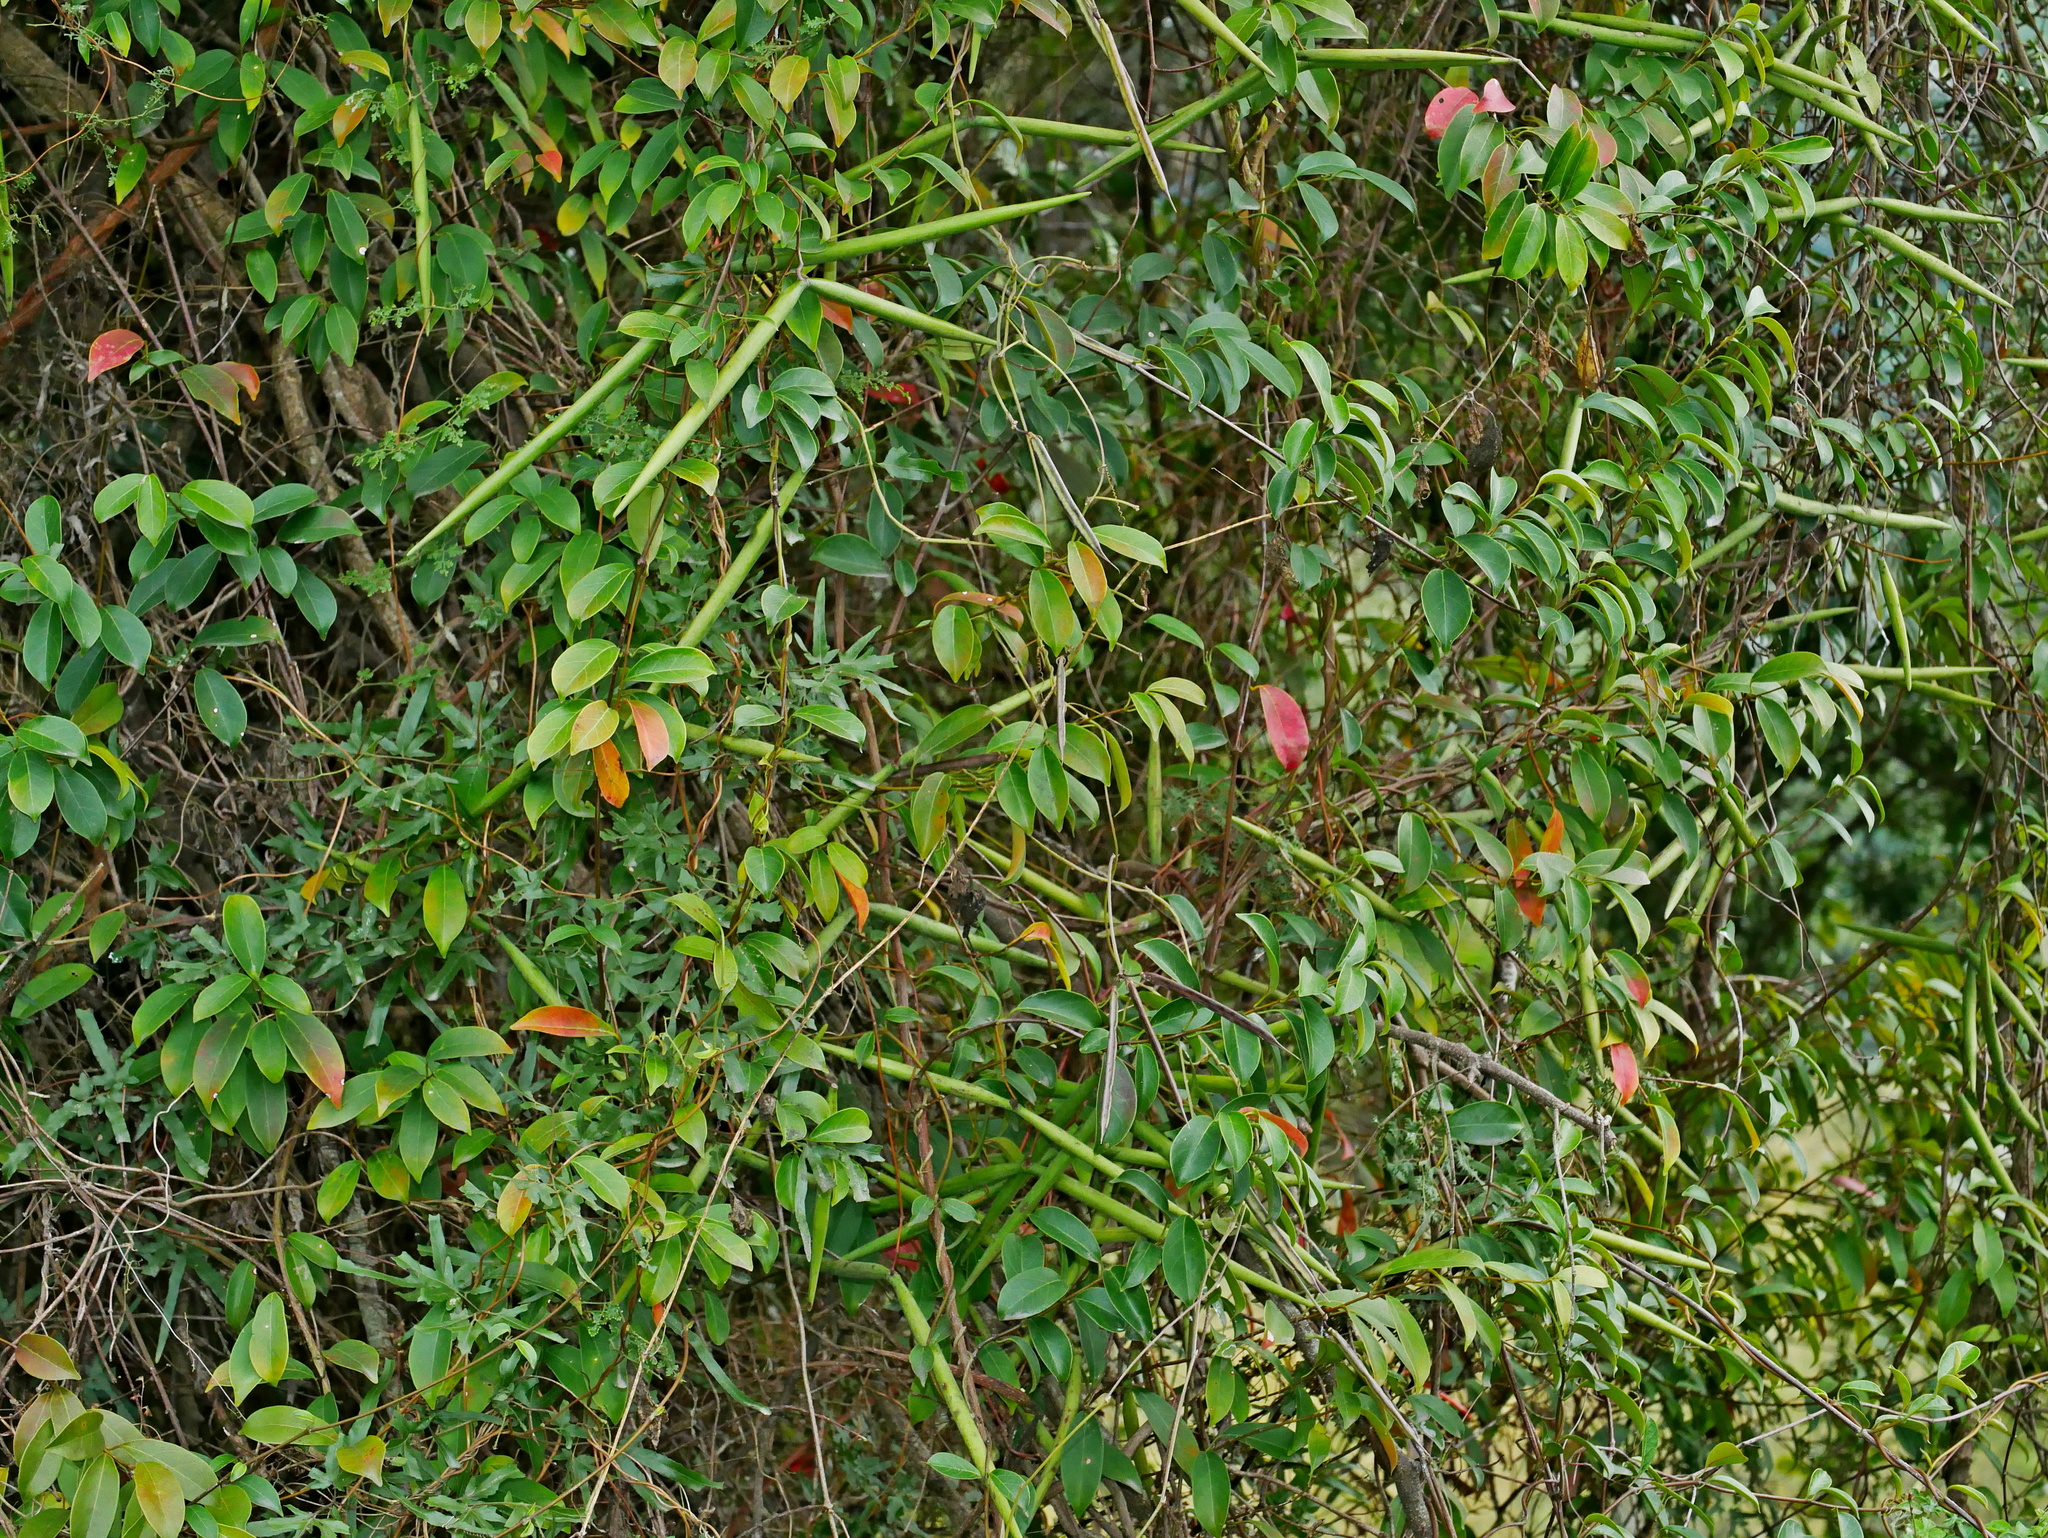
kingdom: Plantae
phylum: Tracheophyta
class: Magnoliopsida
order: Gentianales
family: Apocynaceae
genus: Urceola
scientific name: Urceola rosea
